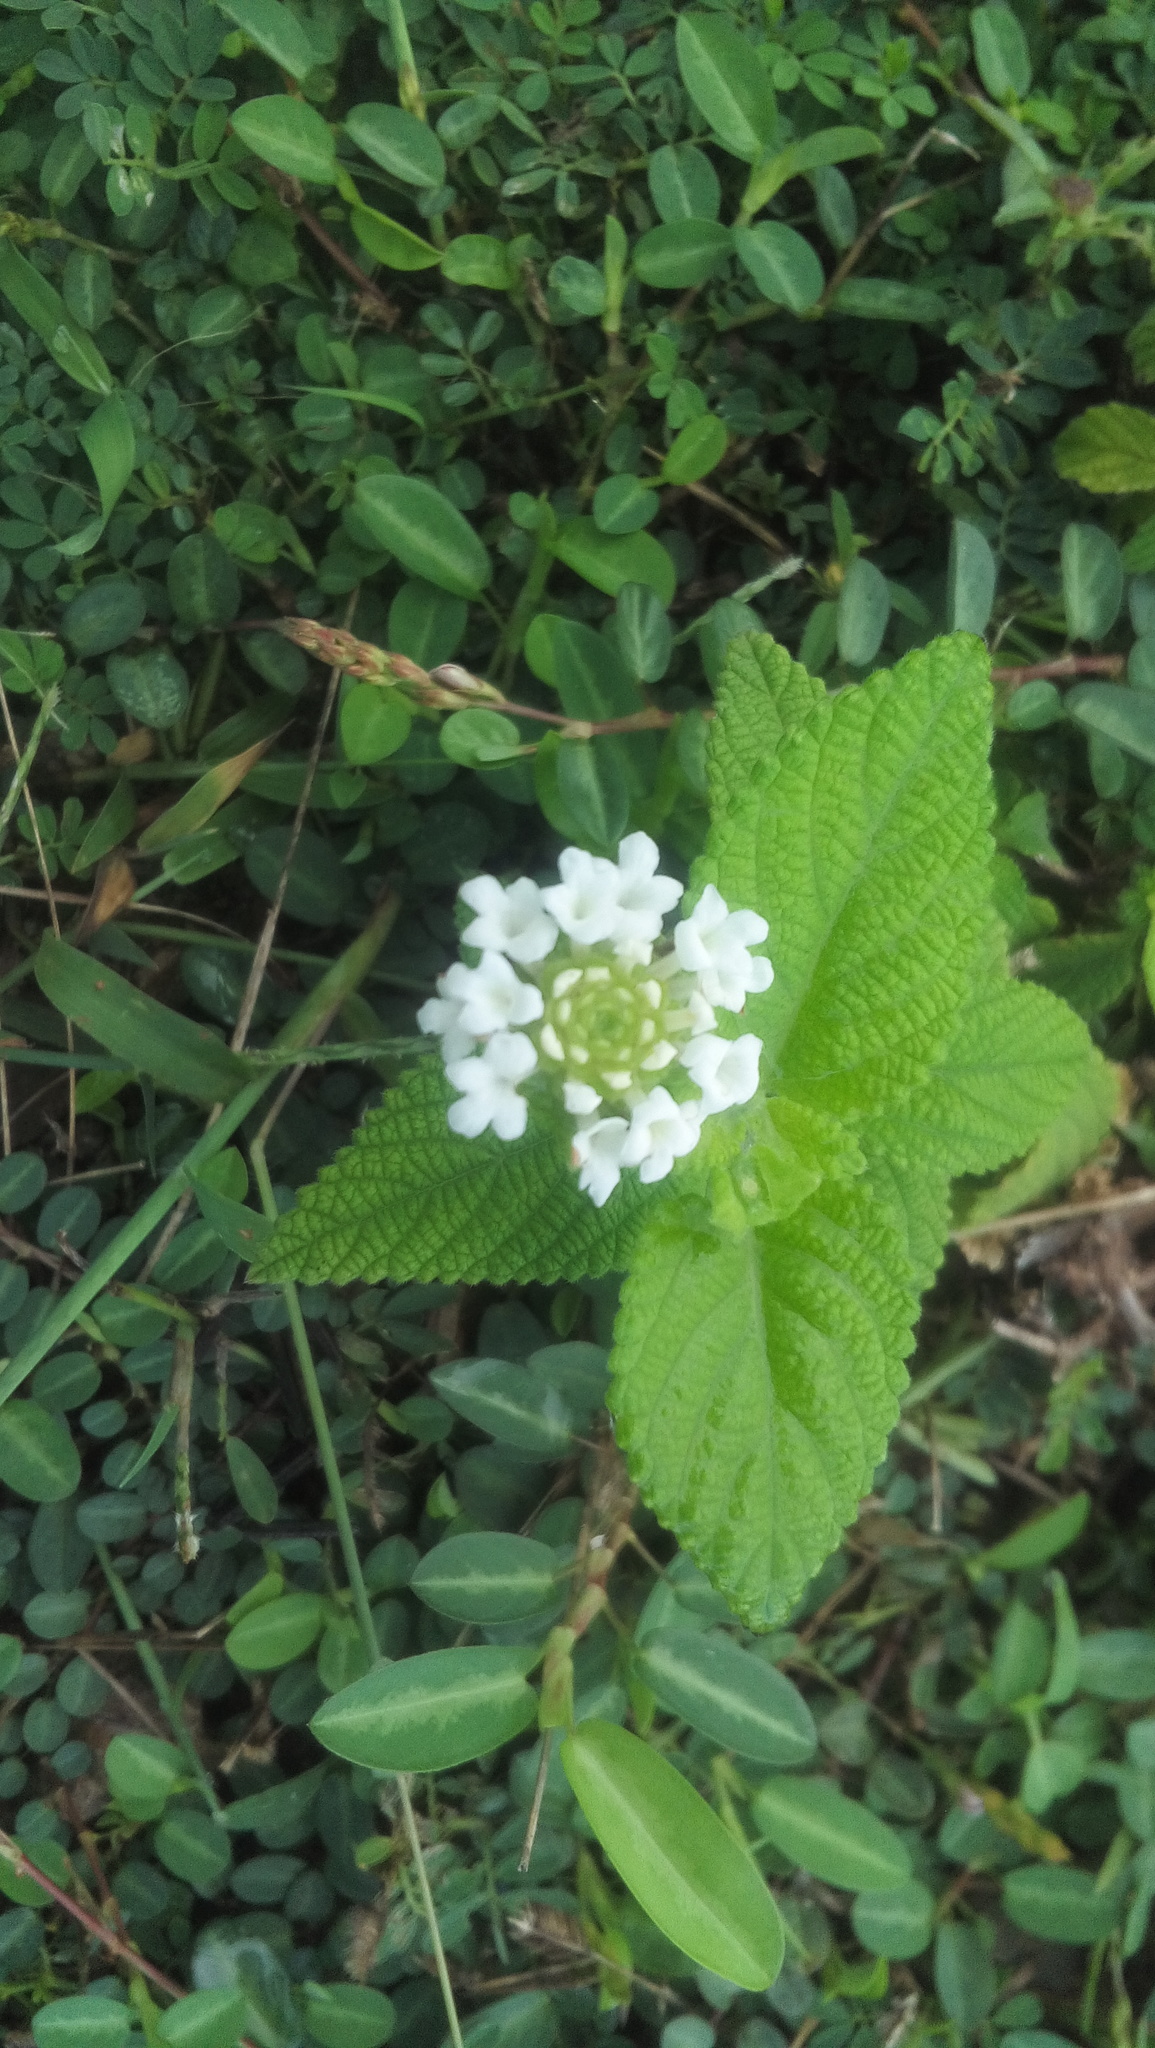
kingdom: Plantae
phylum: Tracheophyta
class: Magnoliopsida
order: Lamiales
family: Verbenaceae
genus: Lantana
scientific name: Lantana velutina
